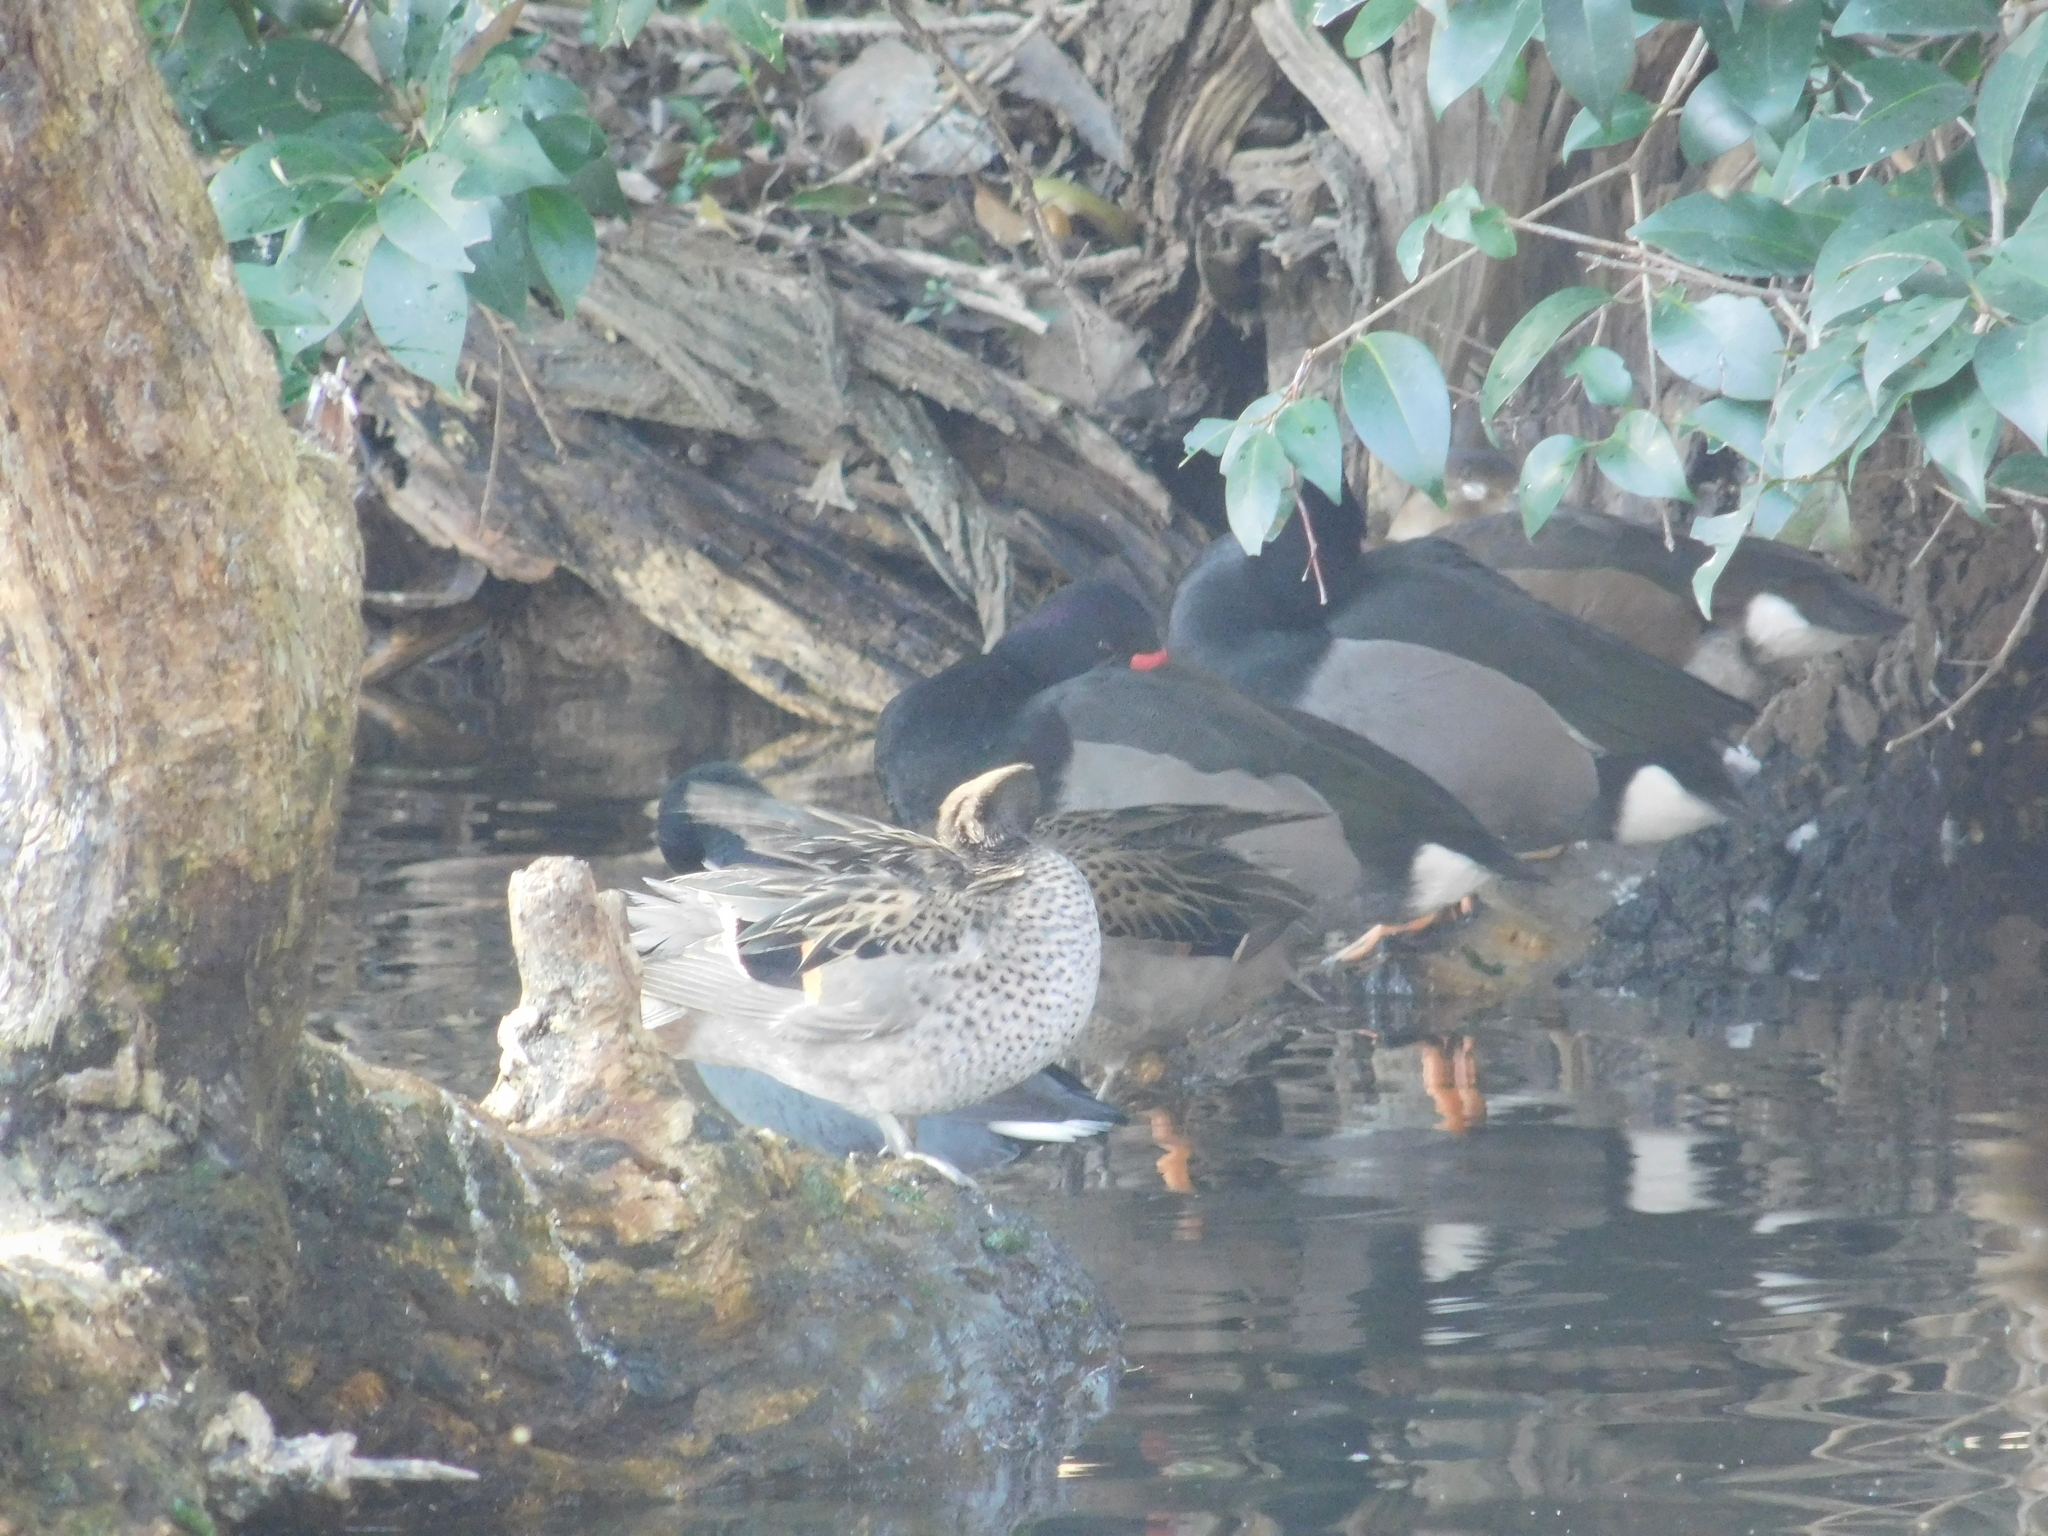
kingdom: Animalia
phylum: Chordata
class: Aves
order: Anseriformes
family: Anatidae
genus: Anas
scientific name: Anas flavirostris
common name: Yellow-billed teal
